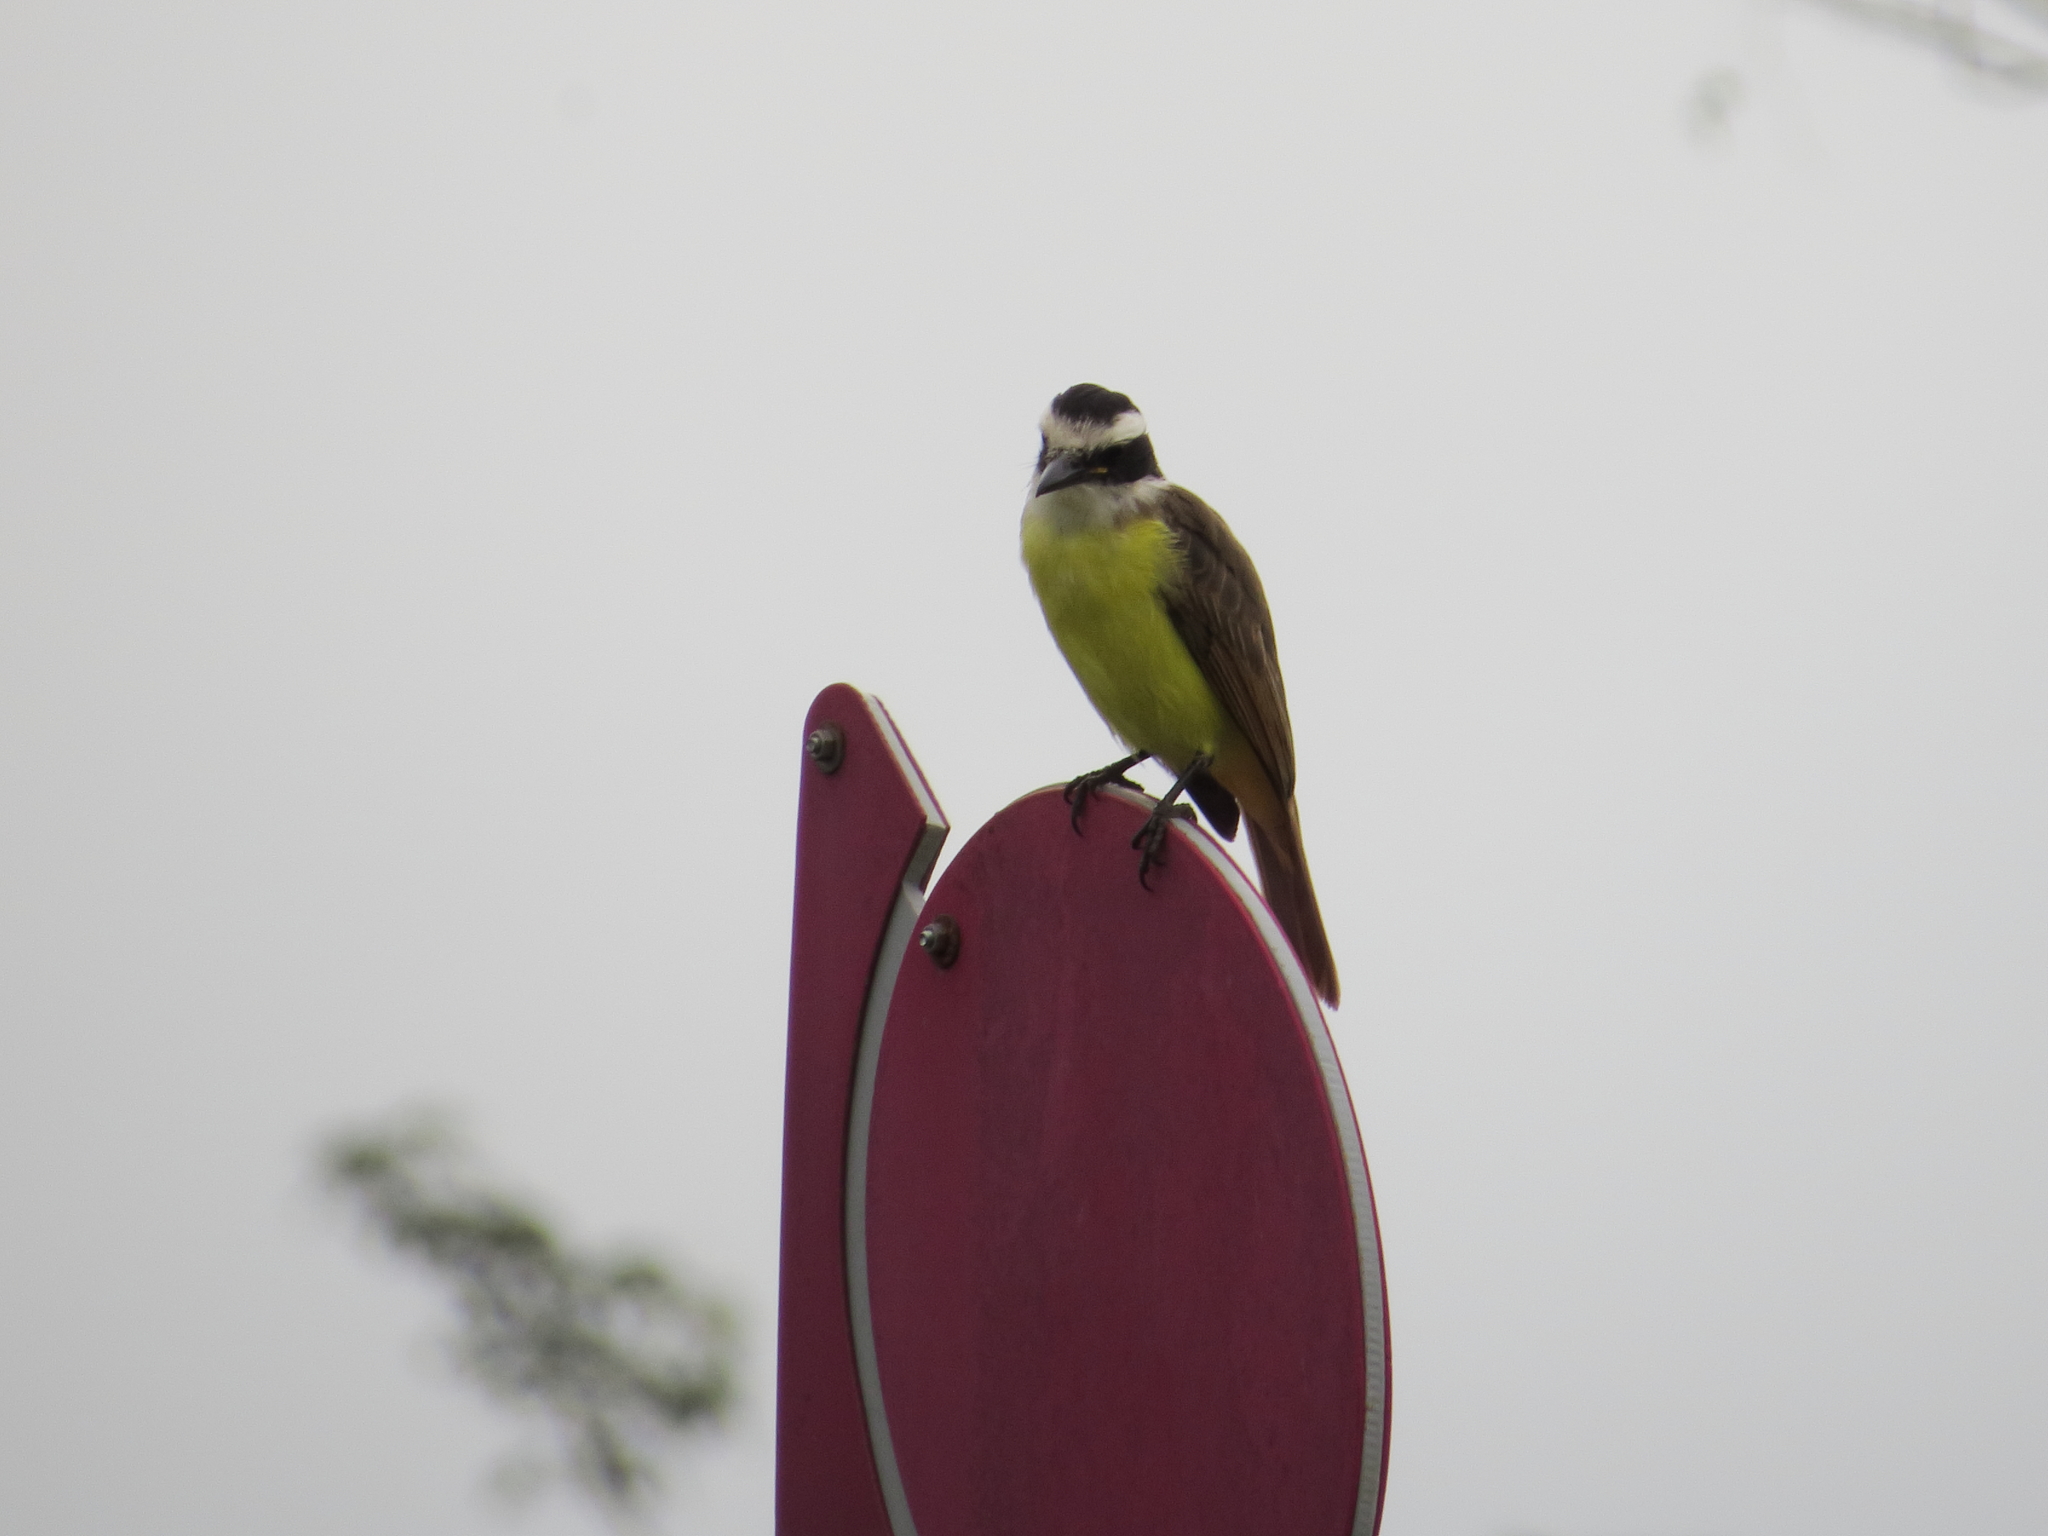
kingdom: Animalia
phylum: Chordata
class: Aves
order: Passeriformes
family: Tyrannidae
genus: Pitangus
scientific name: Pitangus sulphuratus
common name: Great kiskadee
